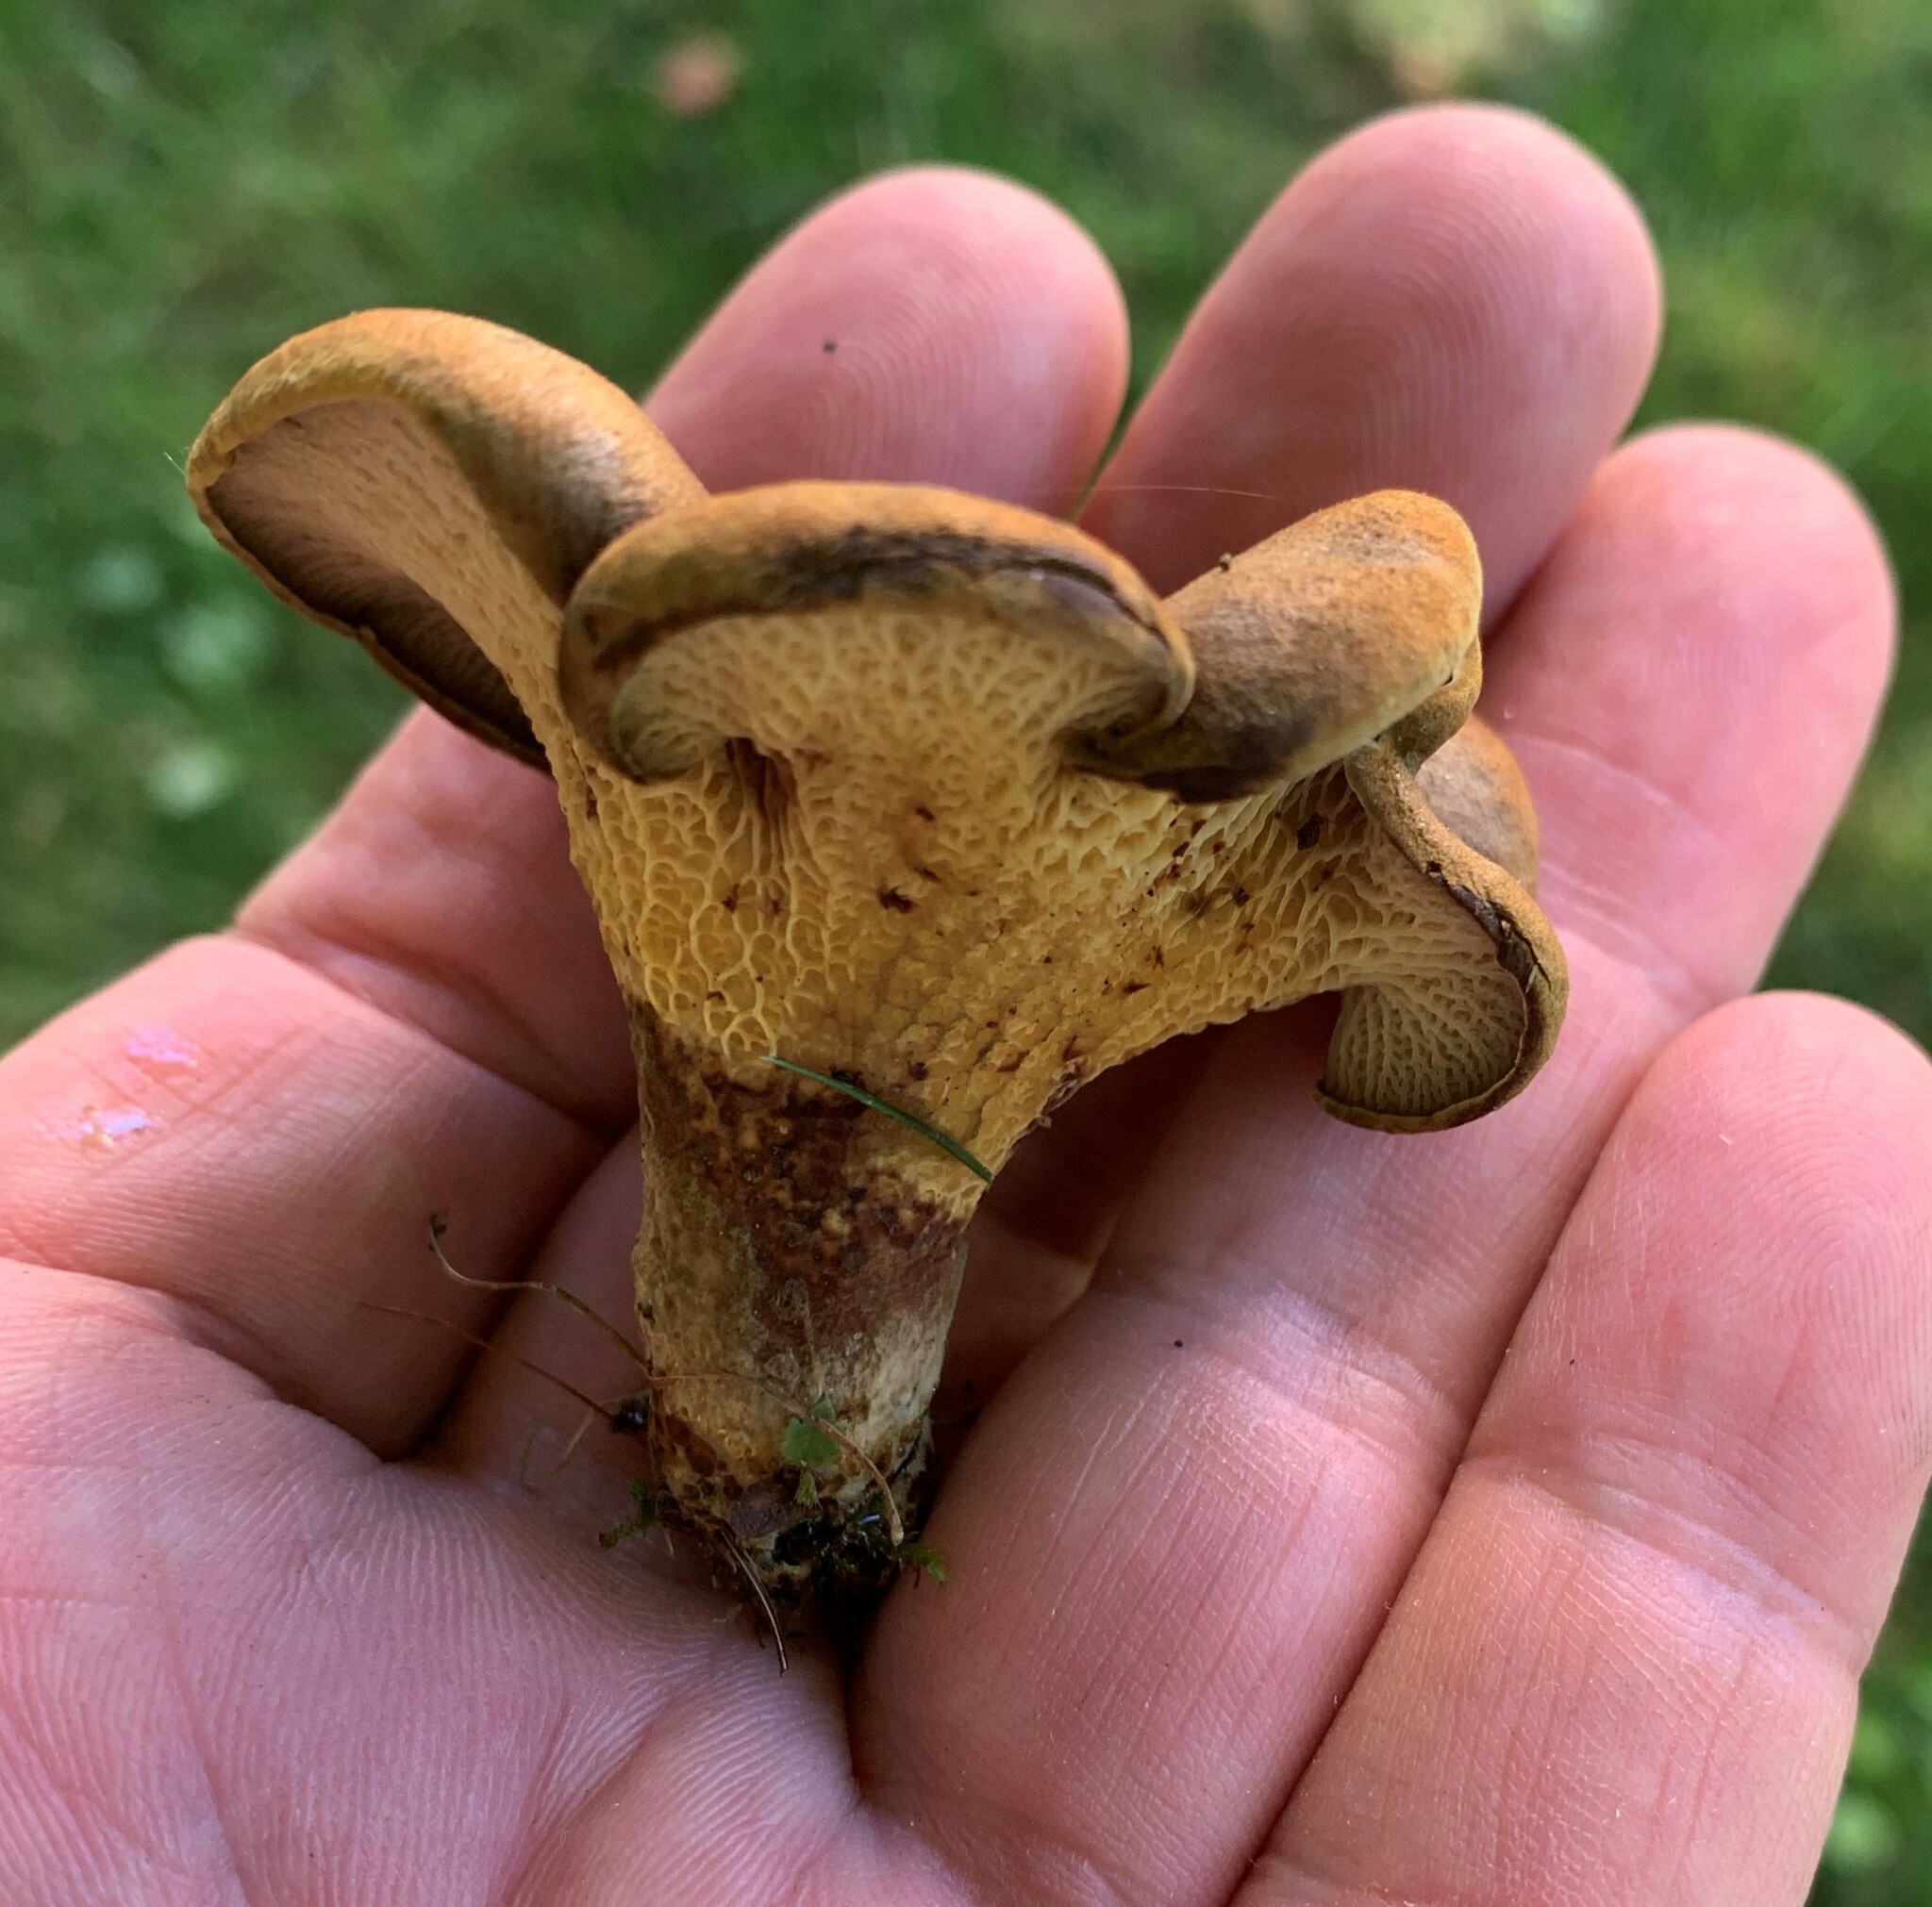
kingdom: Fungi
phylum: Basidiomycota
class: Agaricomycetes
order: Boletales
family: Boletinellaceae
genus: Boletinellus
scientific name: Boletinellus merulioides
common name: Ash tree bolete
